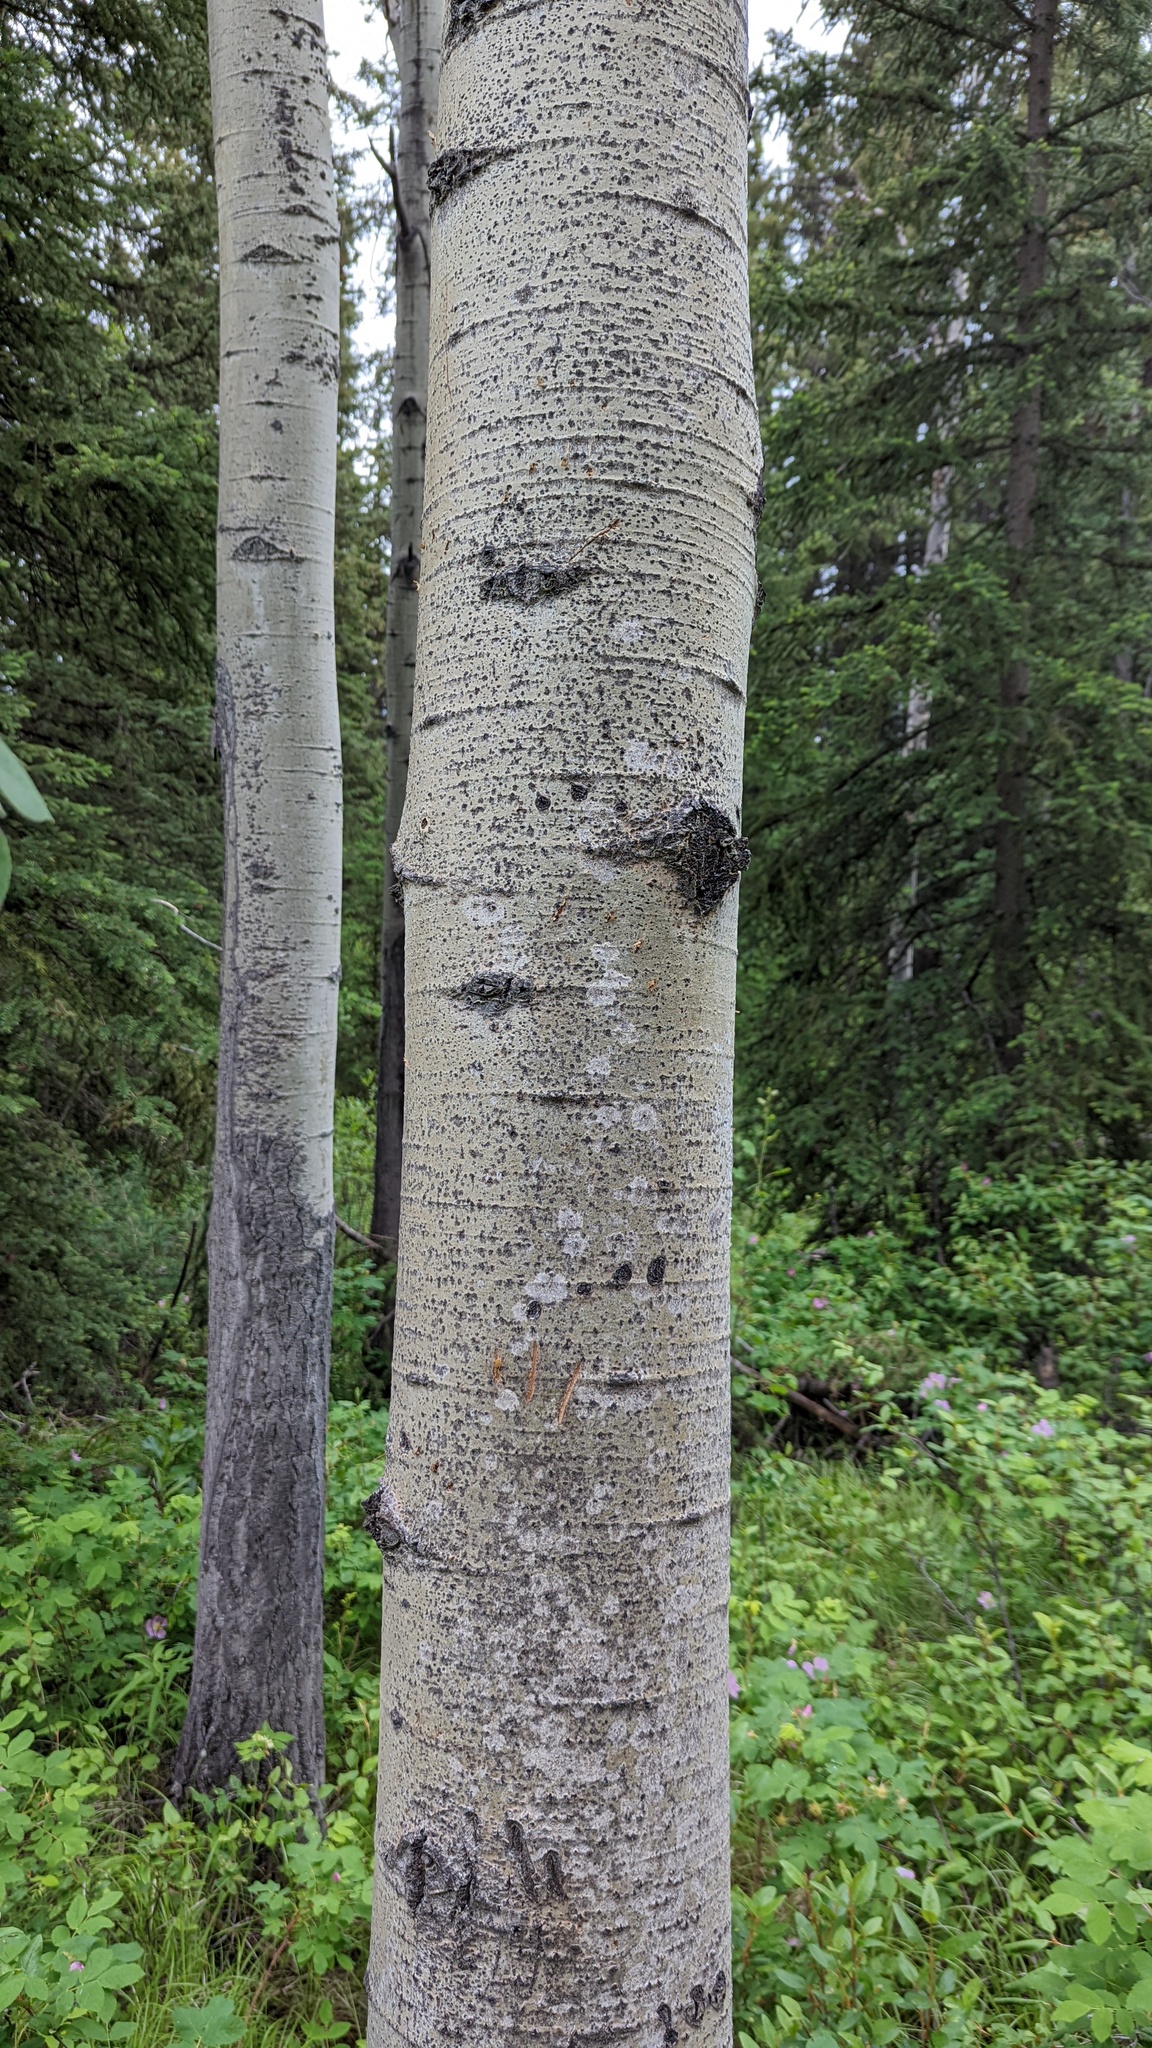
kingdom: Animalia
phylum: Chordata
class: Mammalia
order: Carnivora
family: Ursidae
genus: Ursus
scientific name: Ursus americanus
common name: American black bear
